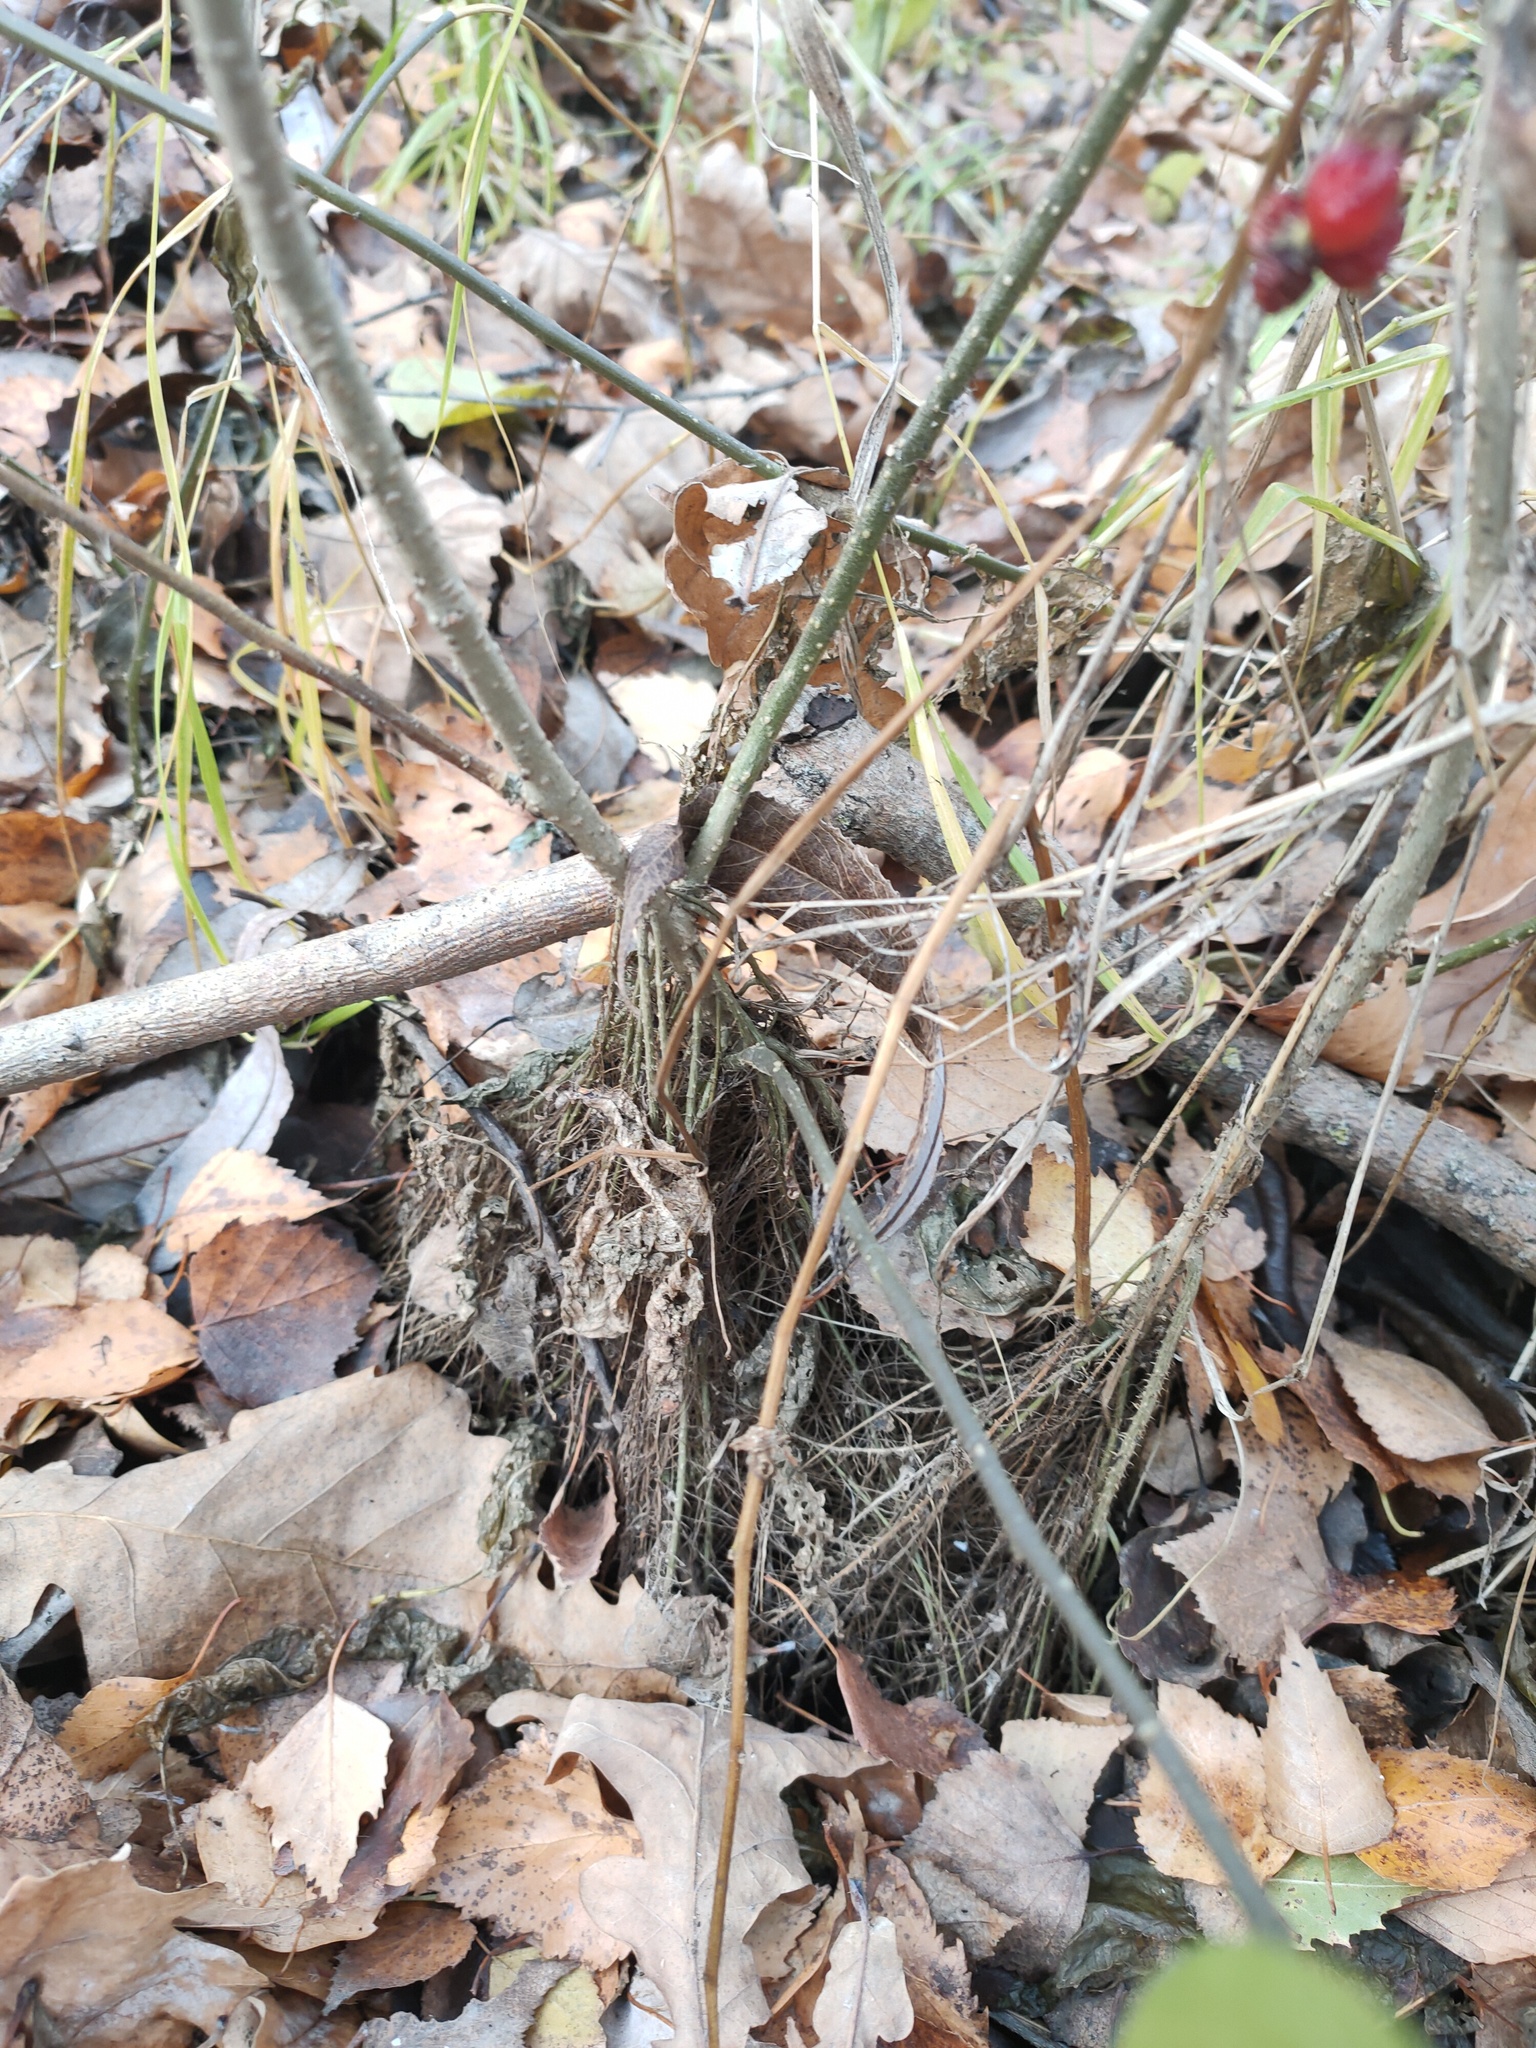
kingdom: Plantae
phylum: Tracheophyta
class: Magnoliopsida
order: Solanales
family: Solanaceae
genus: Solanum
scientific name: Solanum dulcamara
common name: Climbing nightshade
